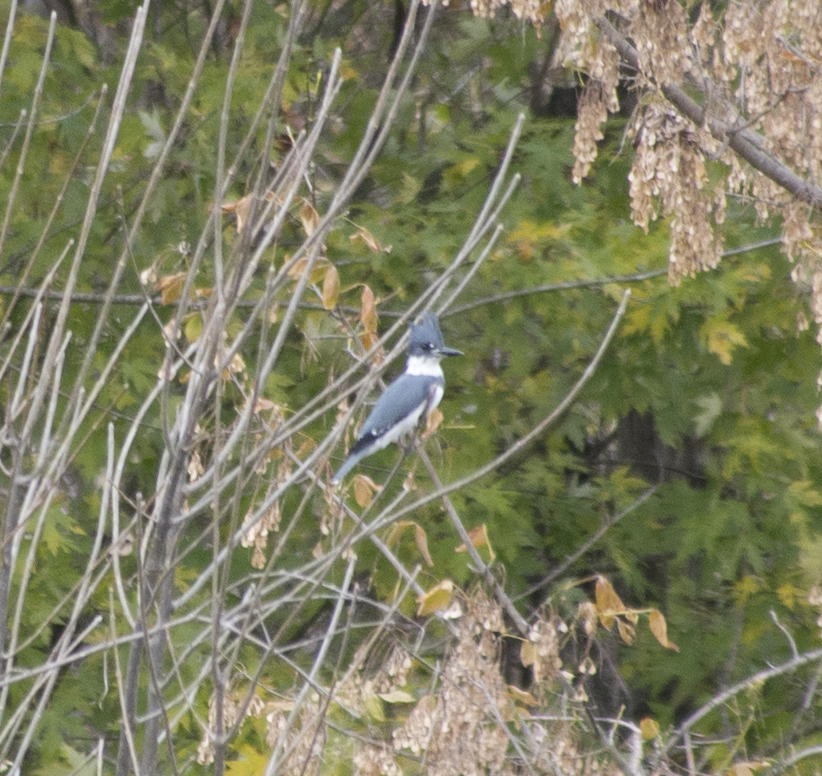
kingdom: Animalia
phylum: Chordata
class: Aves
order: Coraciiformes
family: Alcedinidae
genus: Megaceryle
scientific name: Megaceryle alcyon
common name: Belted kingfisher
